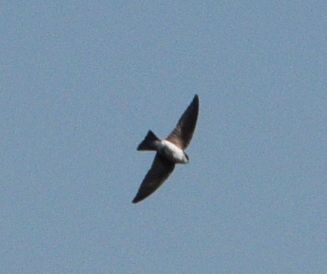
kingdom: Animalia
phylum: Chordata
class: Aves
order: Passeriformes
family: Hirundinidae
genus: Tachycineta
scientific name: Tachycineta bicolor
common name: Tree swallow
